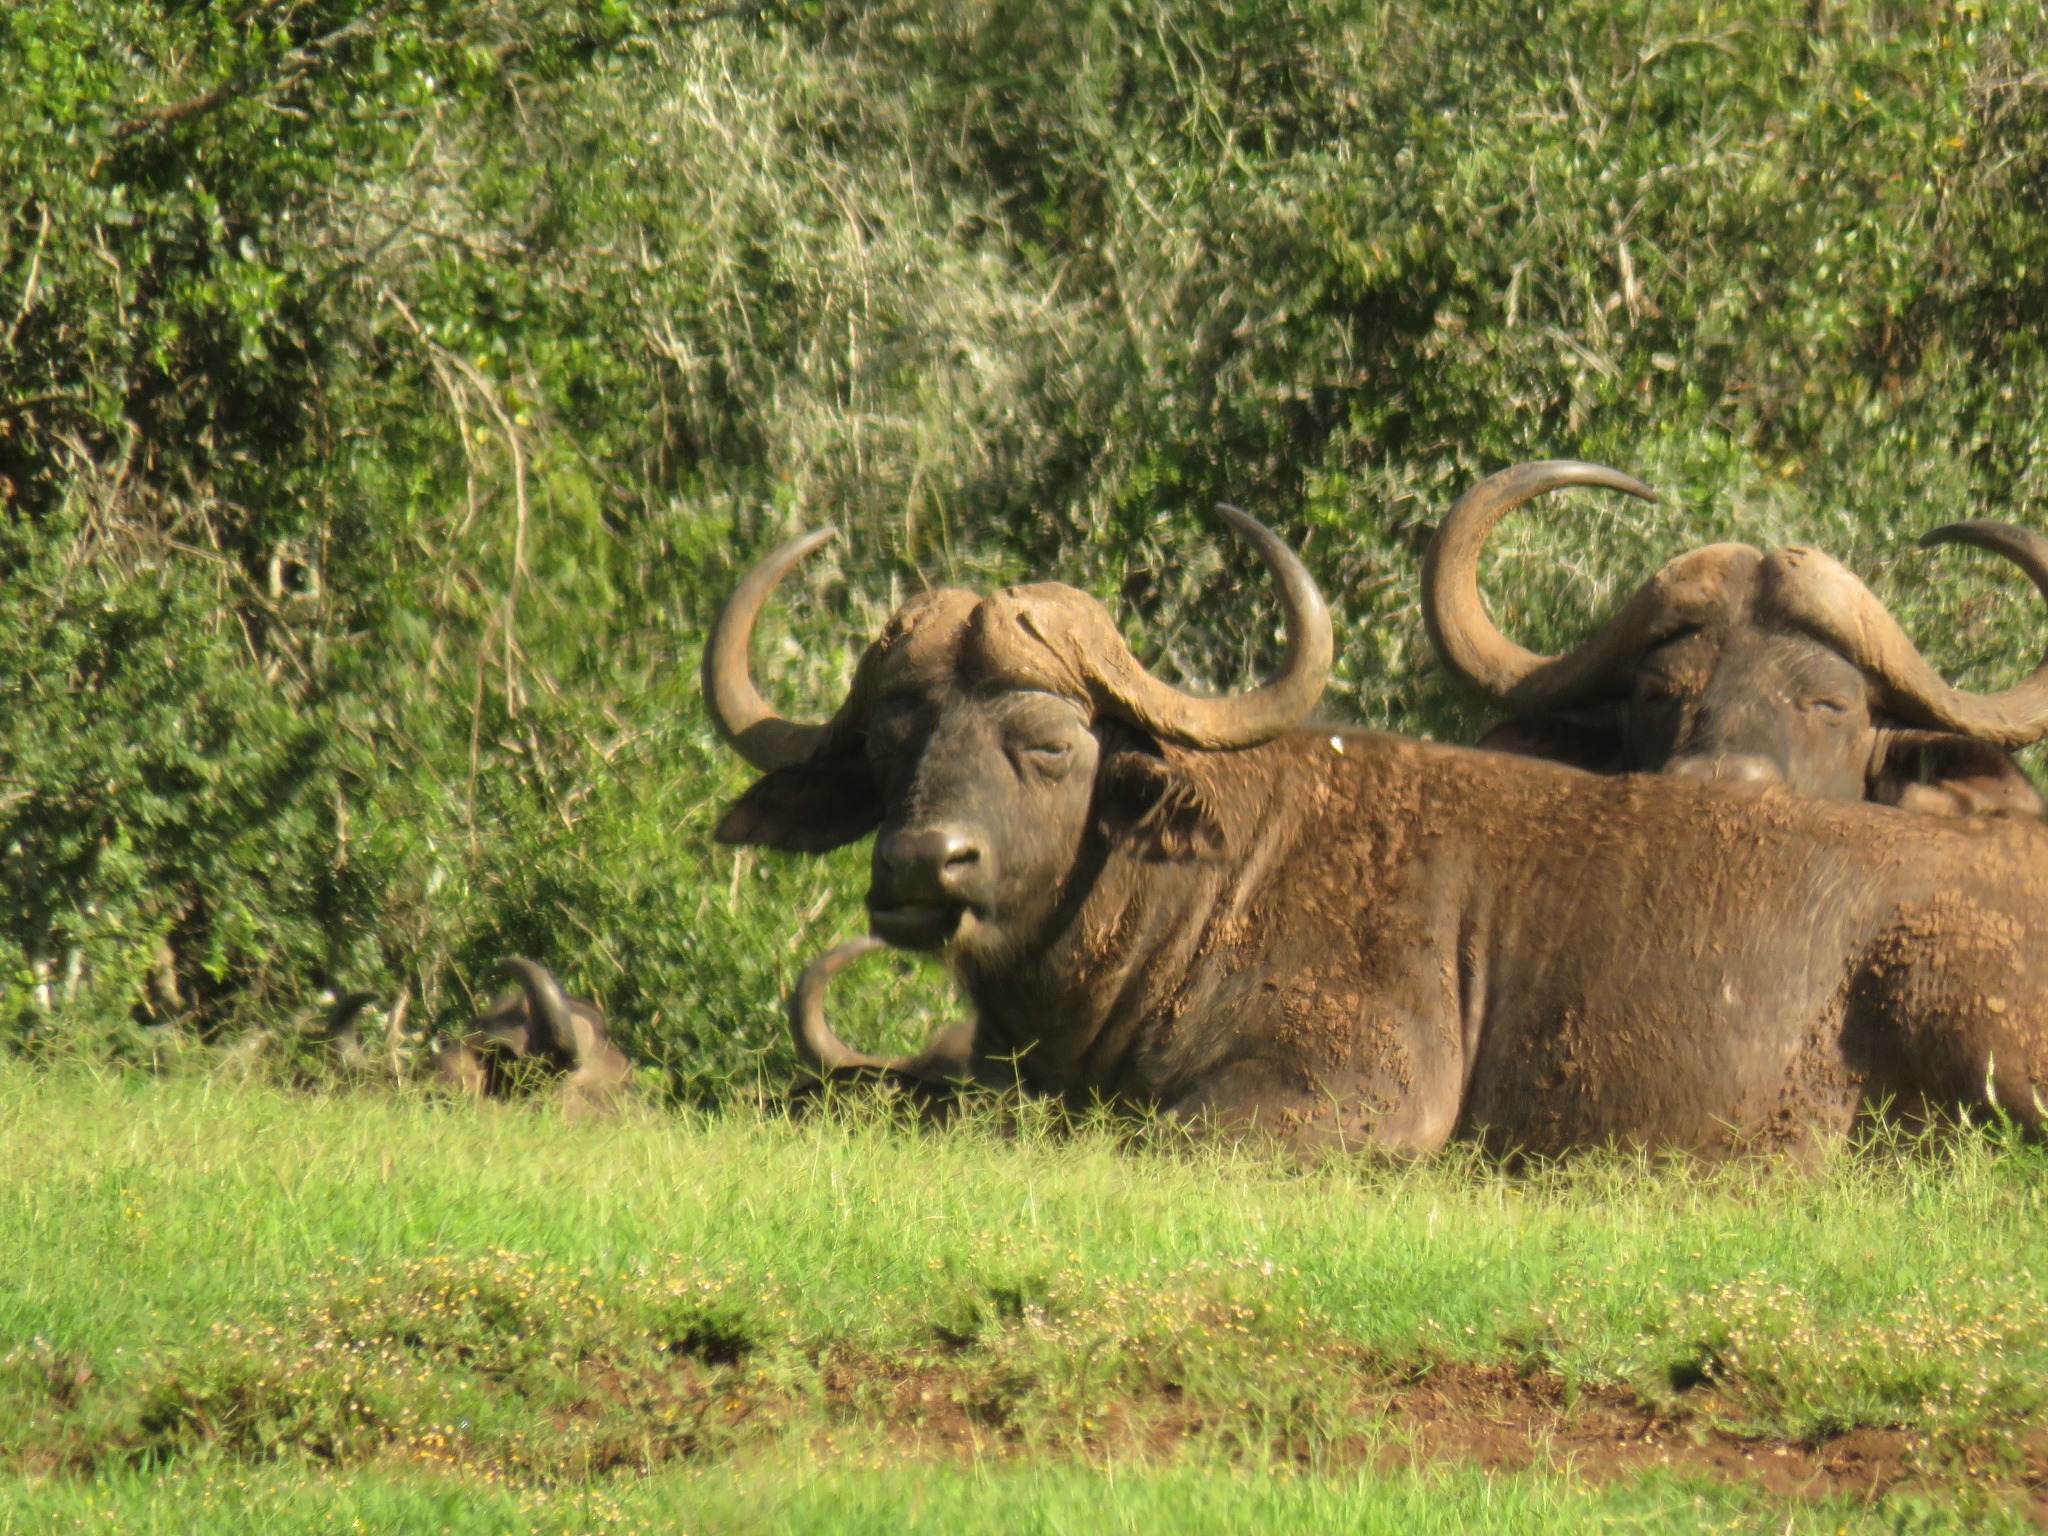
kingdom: Animalia
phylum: Chordata
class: Mammalia
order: Artiodactyla
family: Bovidae
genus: Syncerus
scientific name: Syncerus caffer
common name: African buffalo
